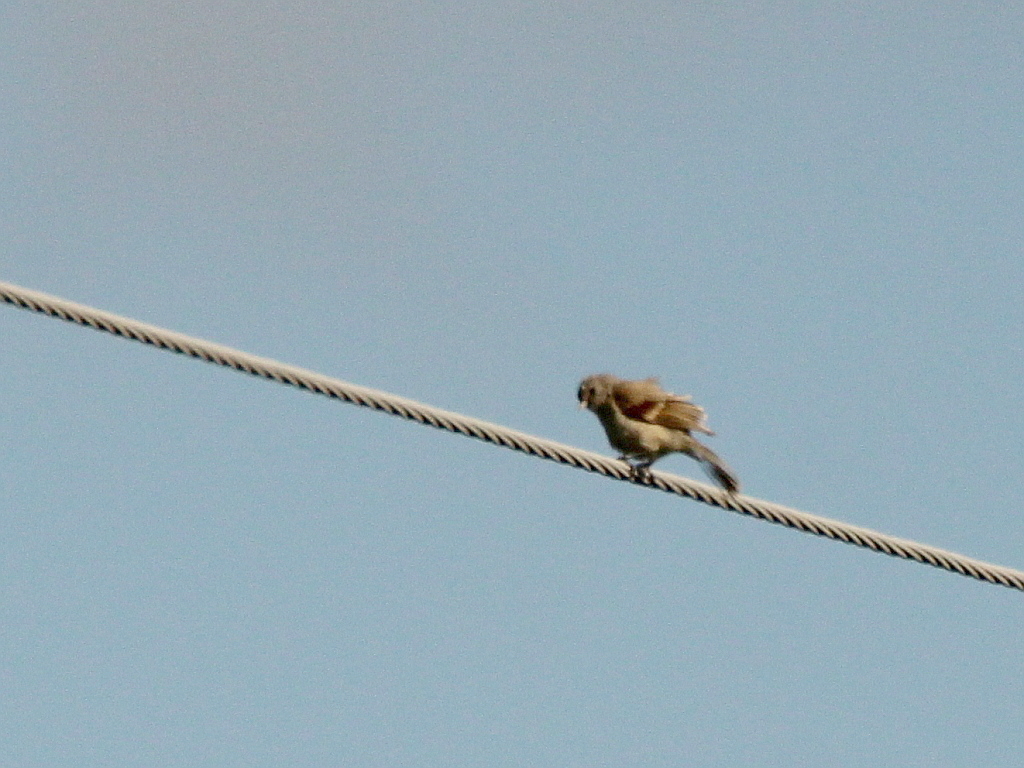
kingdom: Animalia
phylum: Chordata
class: Aves
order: Passeriformes
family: Remizidae
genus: Remiz
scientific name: Remiz pendulinus
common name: Eurasian penduline tit
